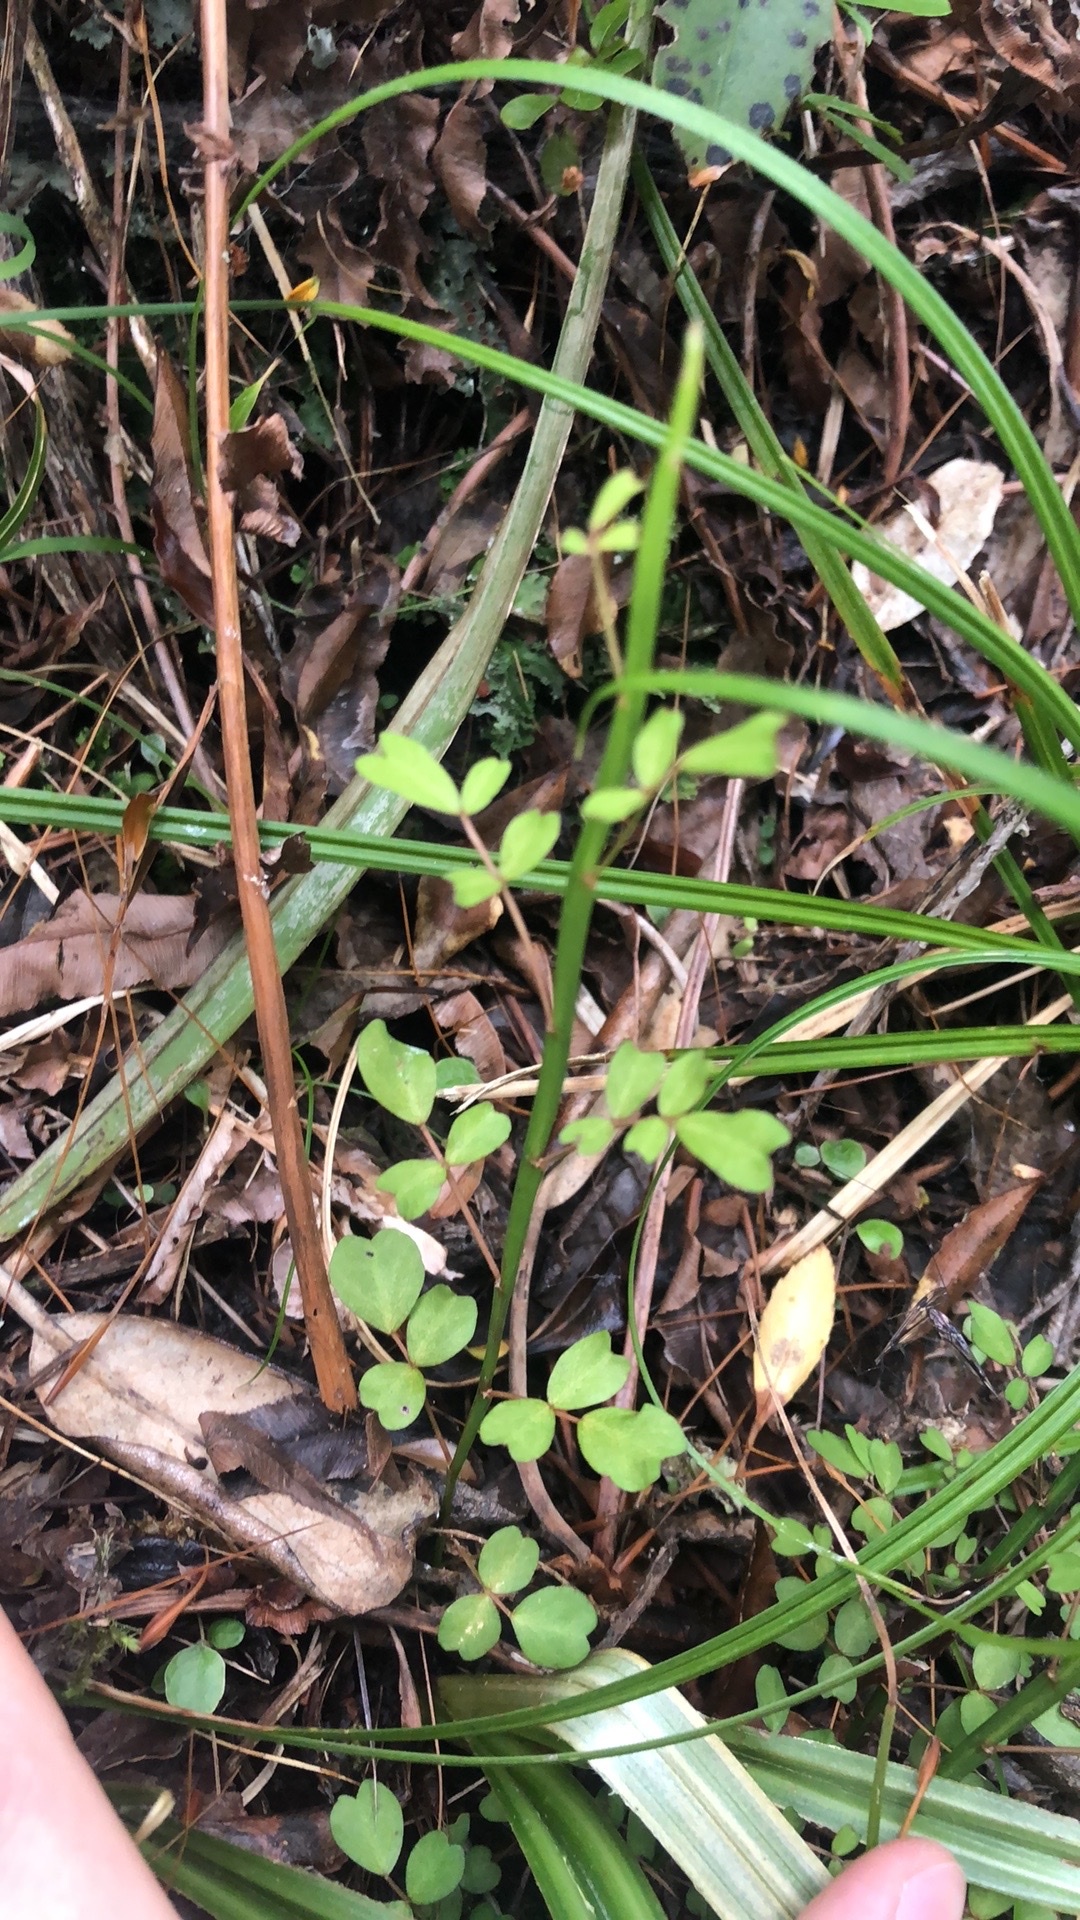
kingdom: Plantae
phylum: Tracheophyta
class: Magnoliopsida
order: Fabales
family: Fabaceae
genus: Carmichaelia
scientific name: Carmichaelia australis
